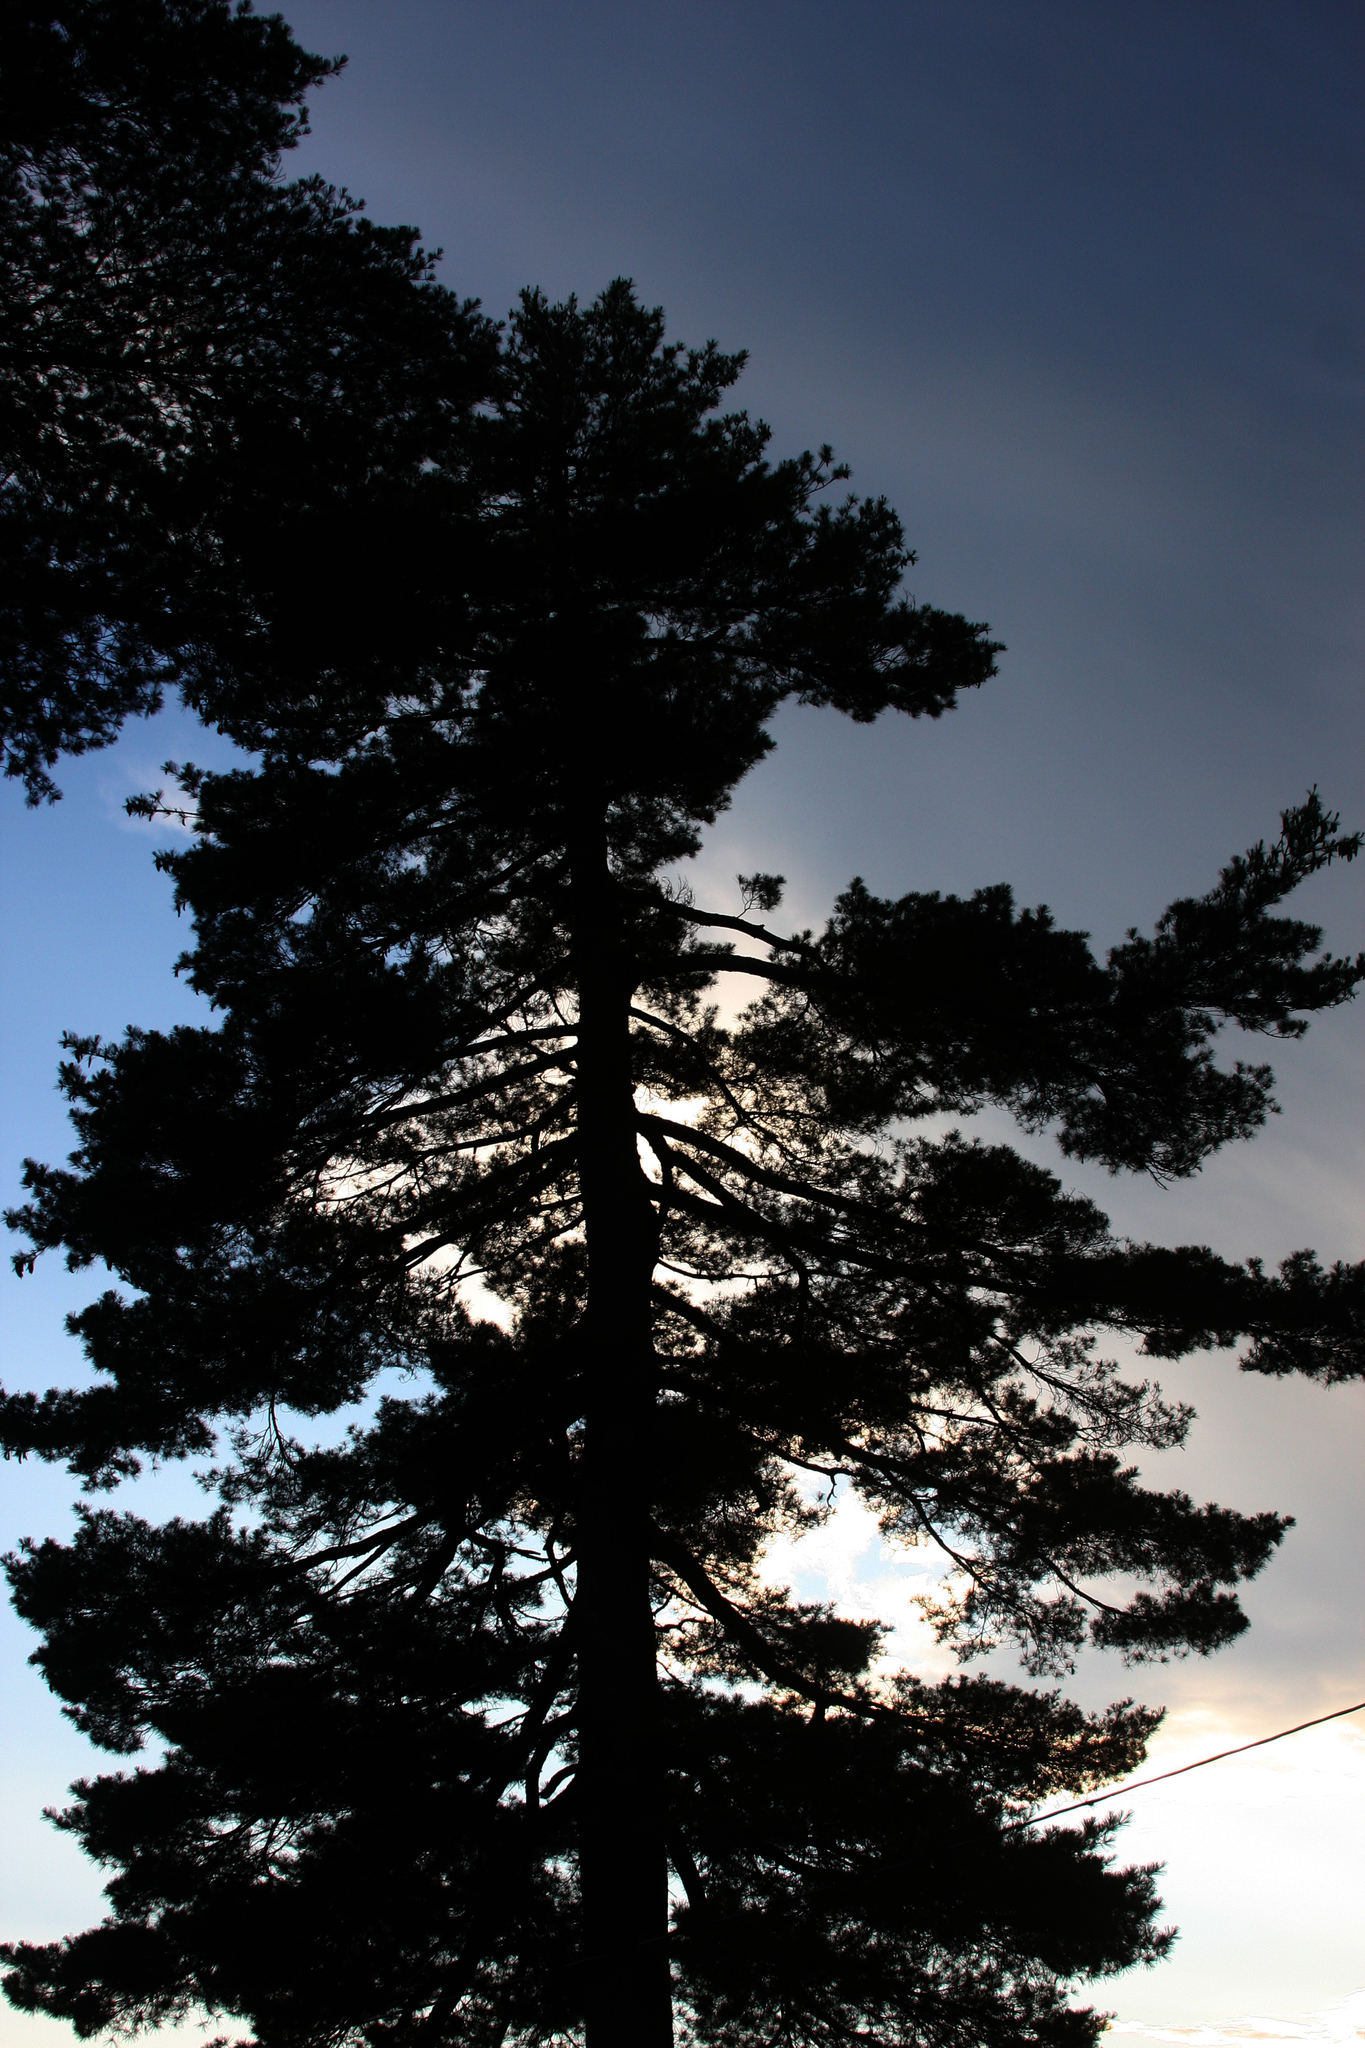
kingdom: Plantae
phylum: Tracheophyta
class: Pinopsida
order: Pinales
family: Pinaceae
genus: Pinus
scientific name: Pinus strobus
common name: Weymouth pine
